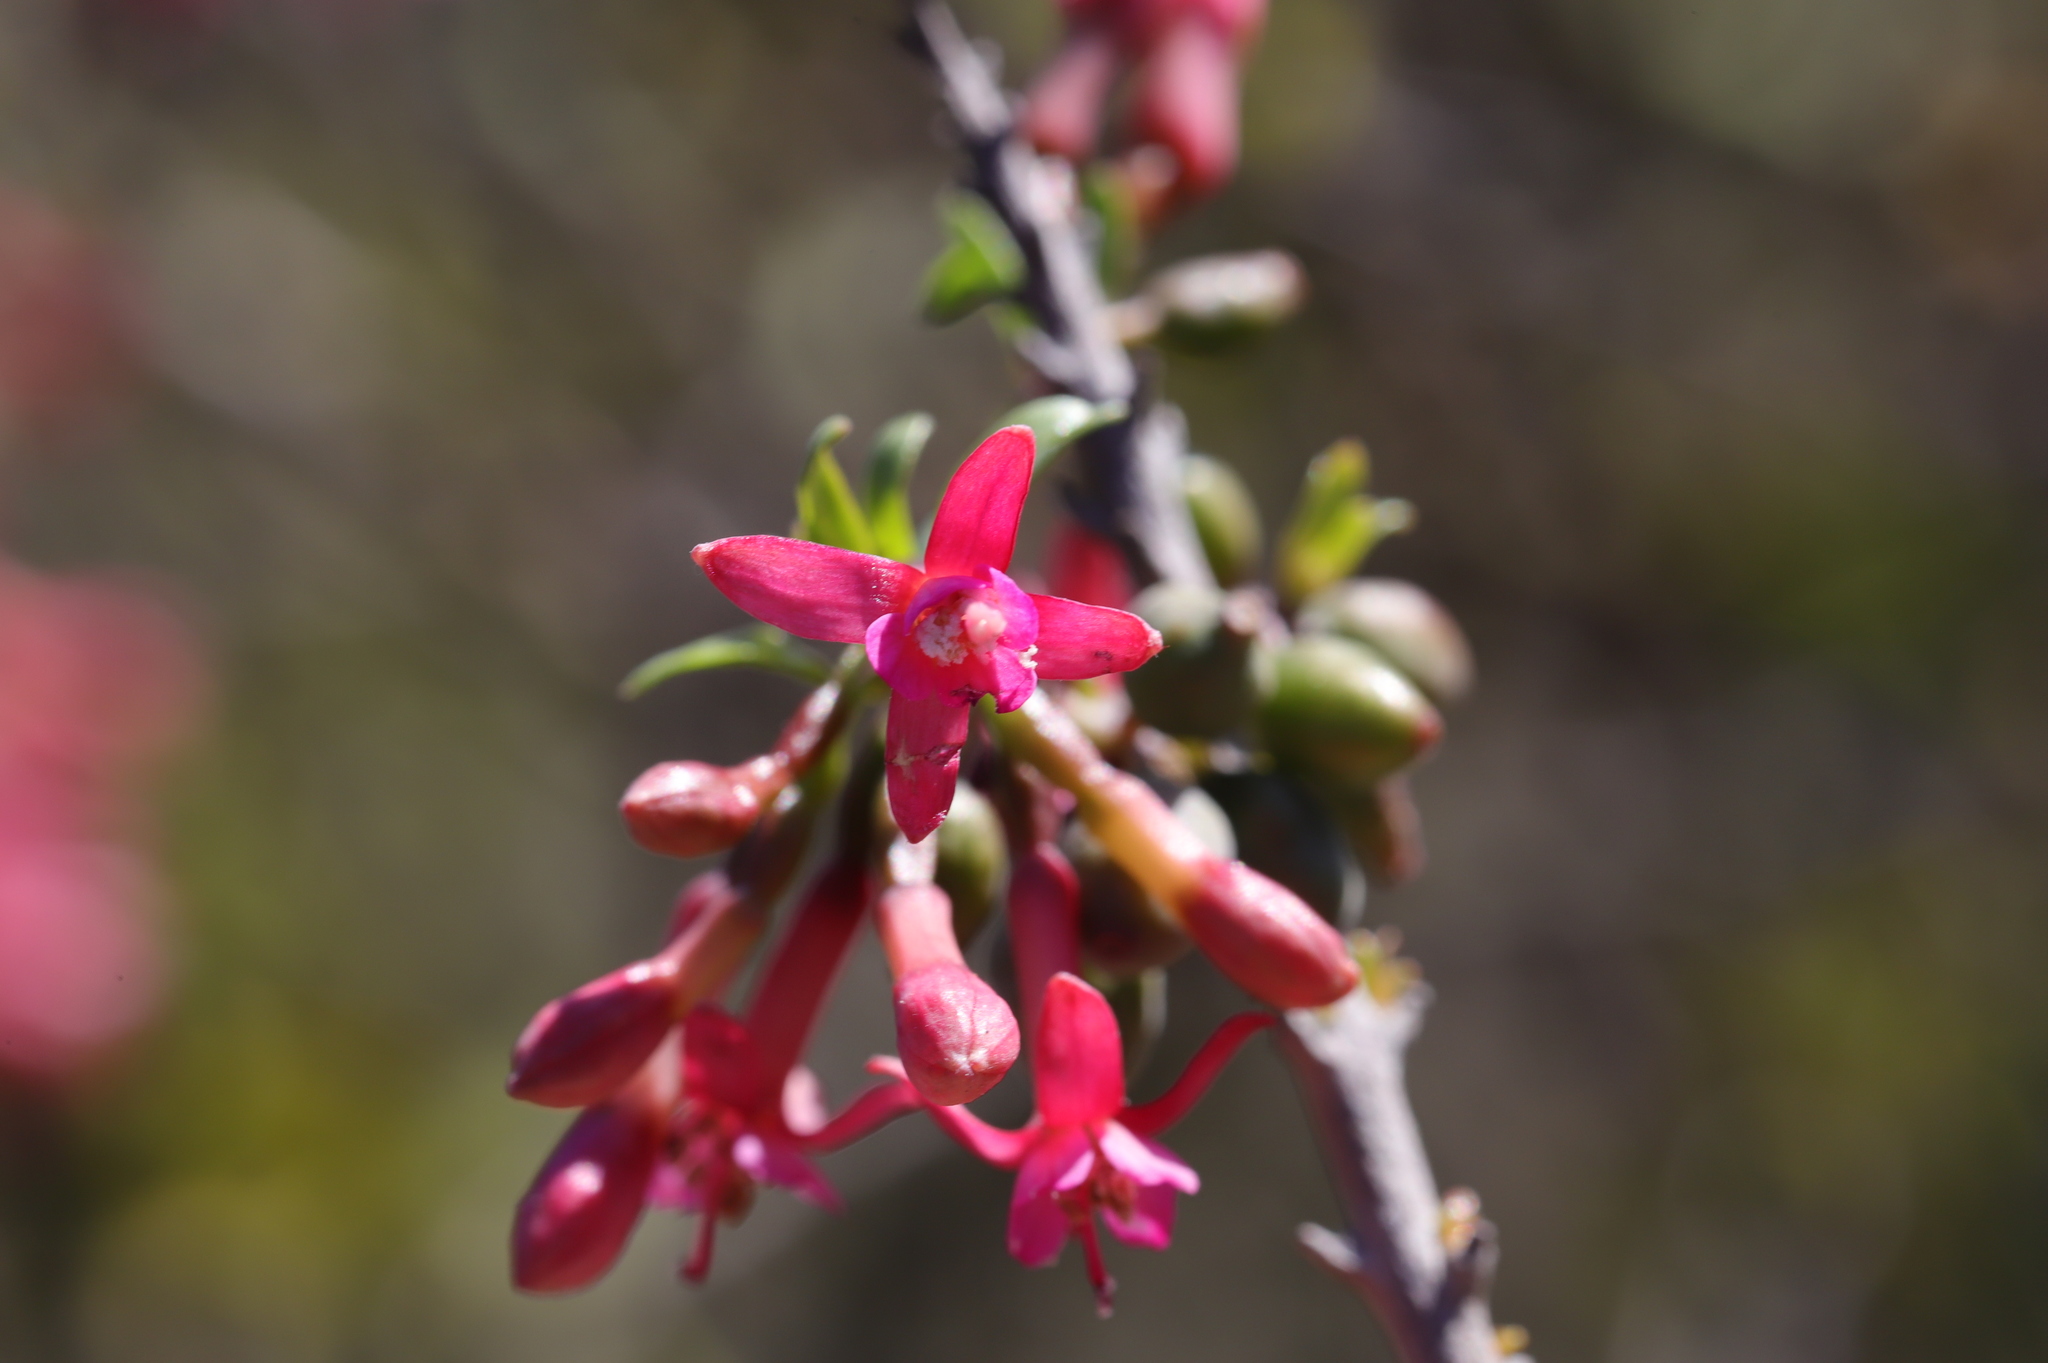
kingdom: Plantae
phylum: Tracheophyta
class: Magnoliopsida
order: Myrtales
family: Onagraceae
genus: Fuchsia
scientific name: Fuchsia lycioides
